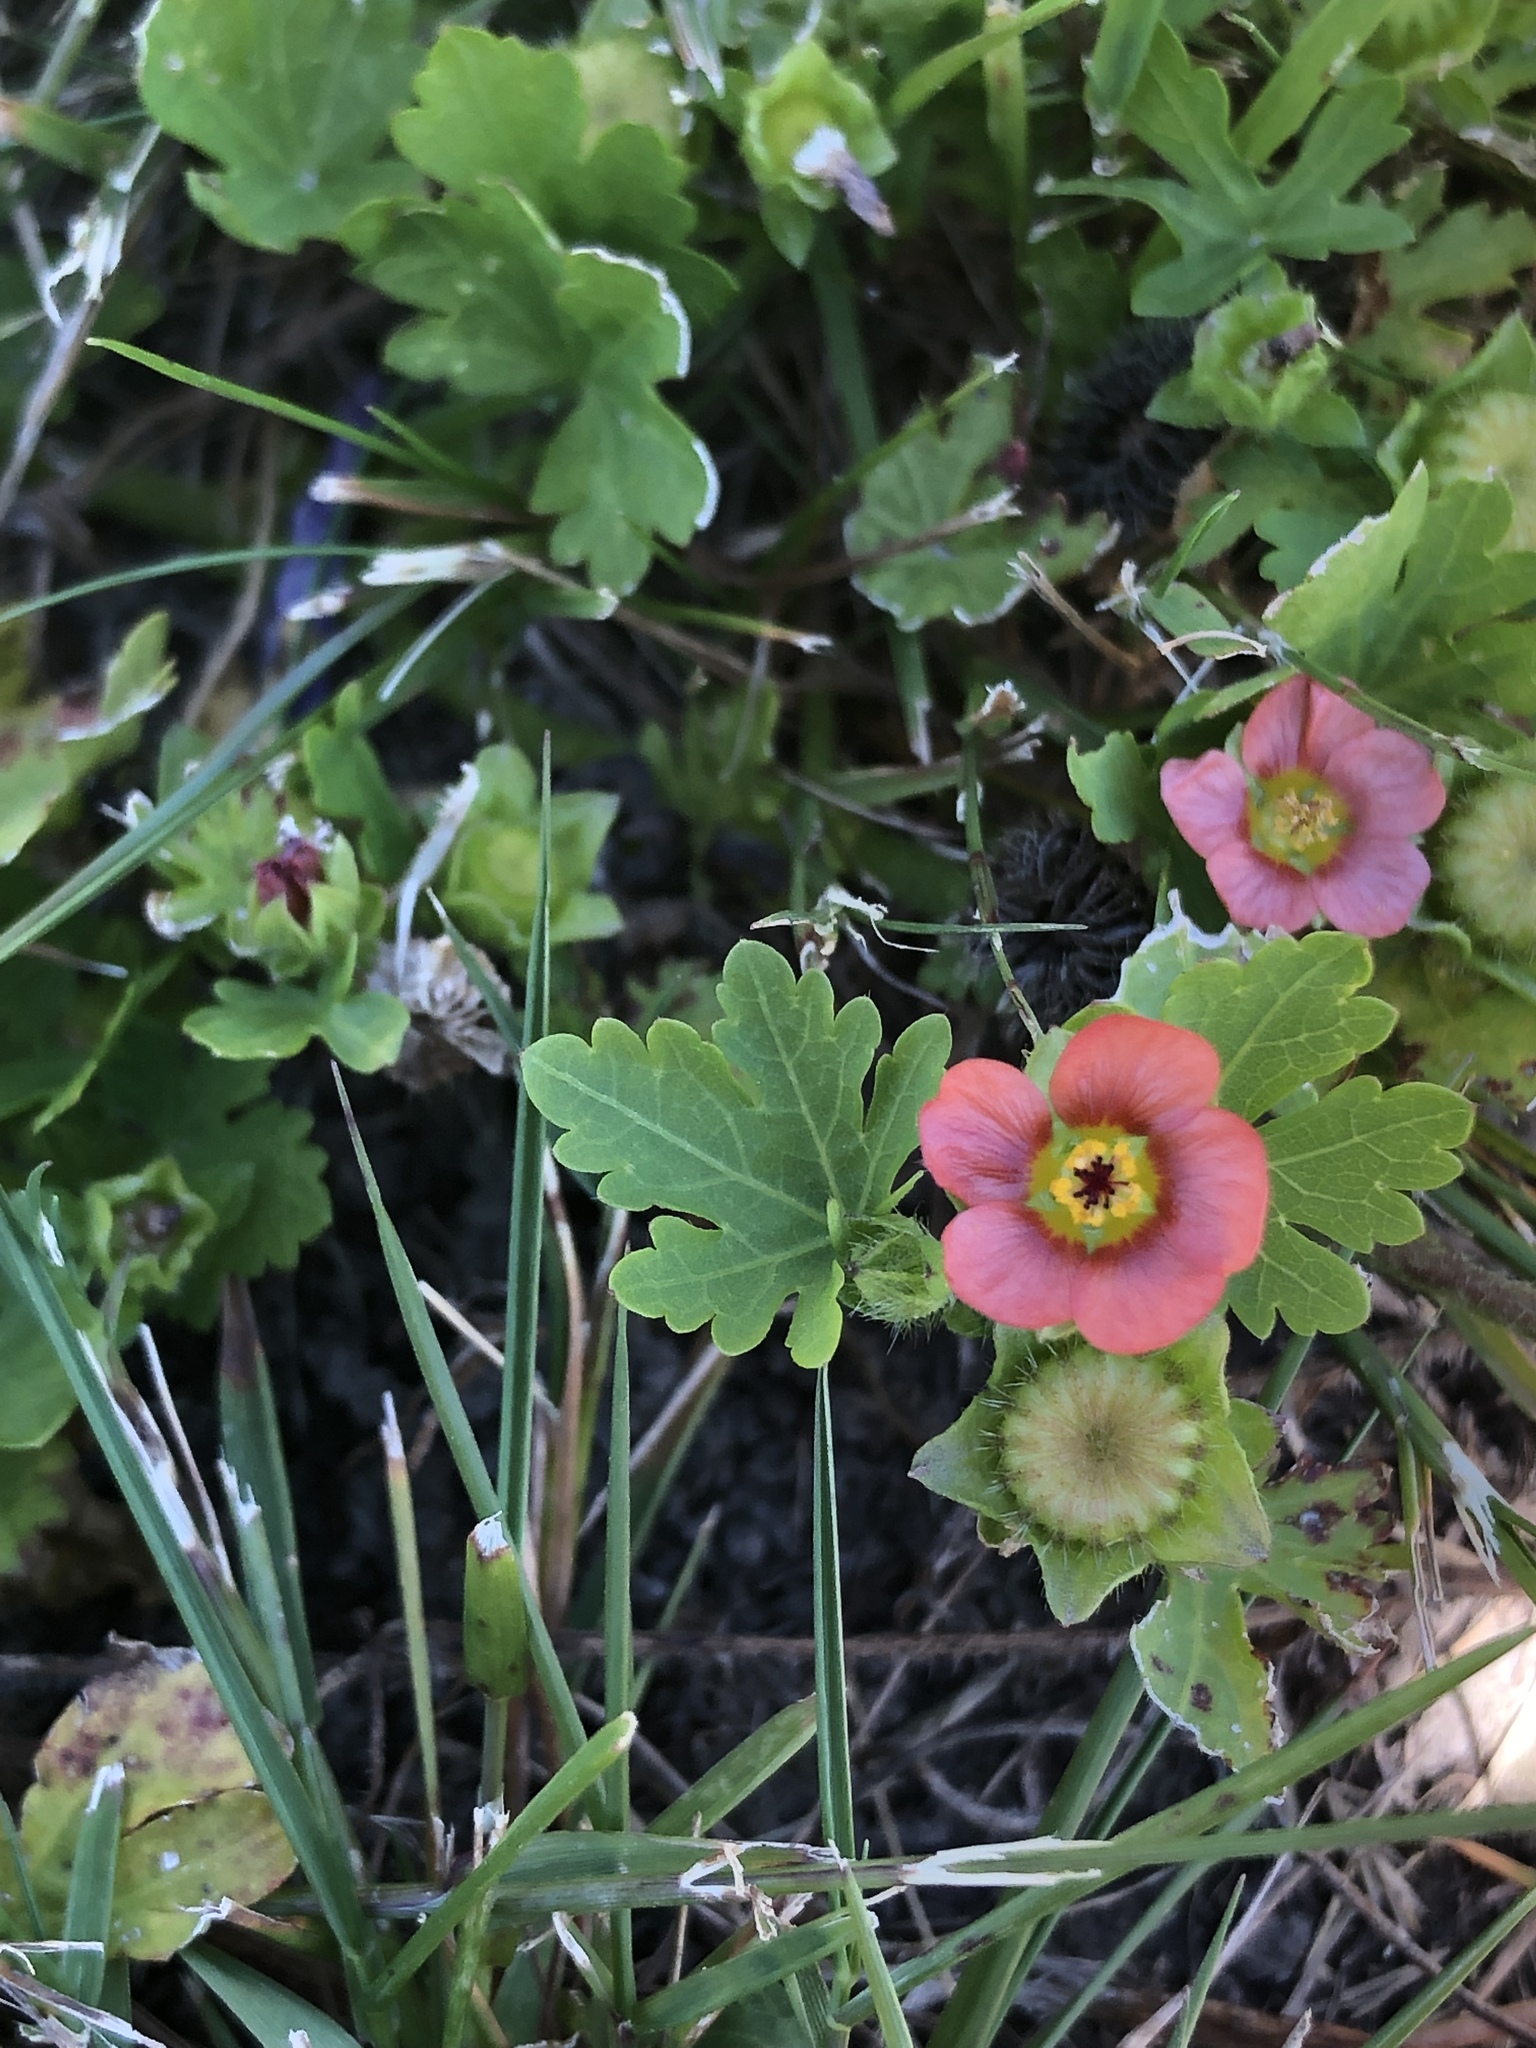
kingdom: Plantae
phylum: Tracheophyta
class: Magnoliopsida
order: Malvales
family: Malvaceae
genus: Modiola
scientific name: Modiola caroliniana
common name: Carolina bristlemallow
